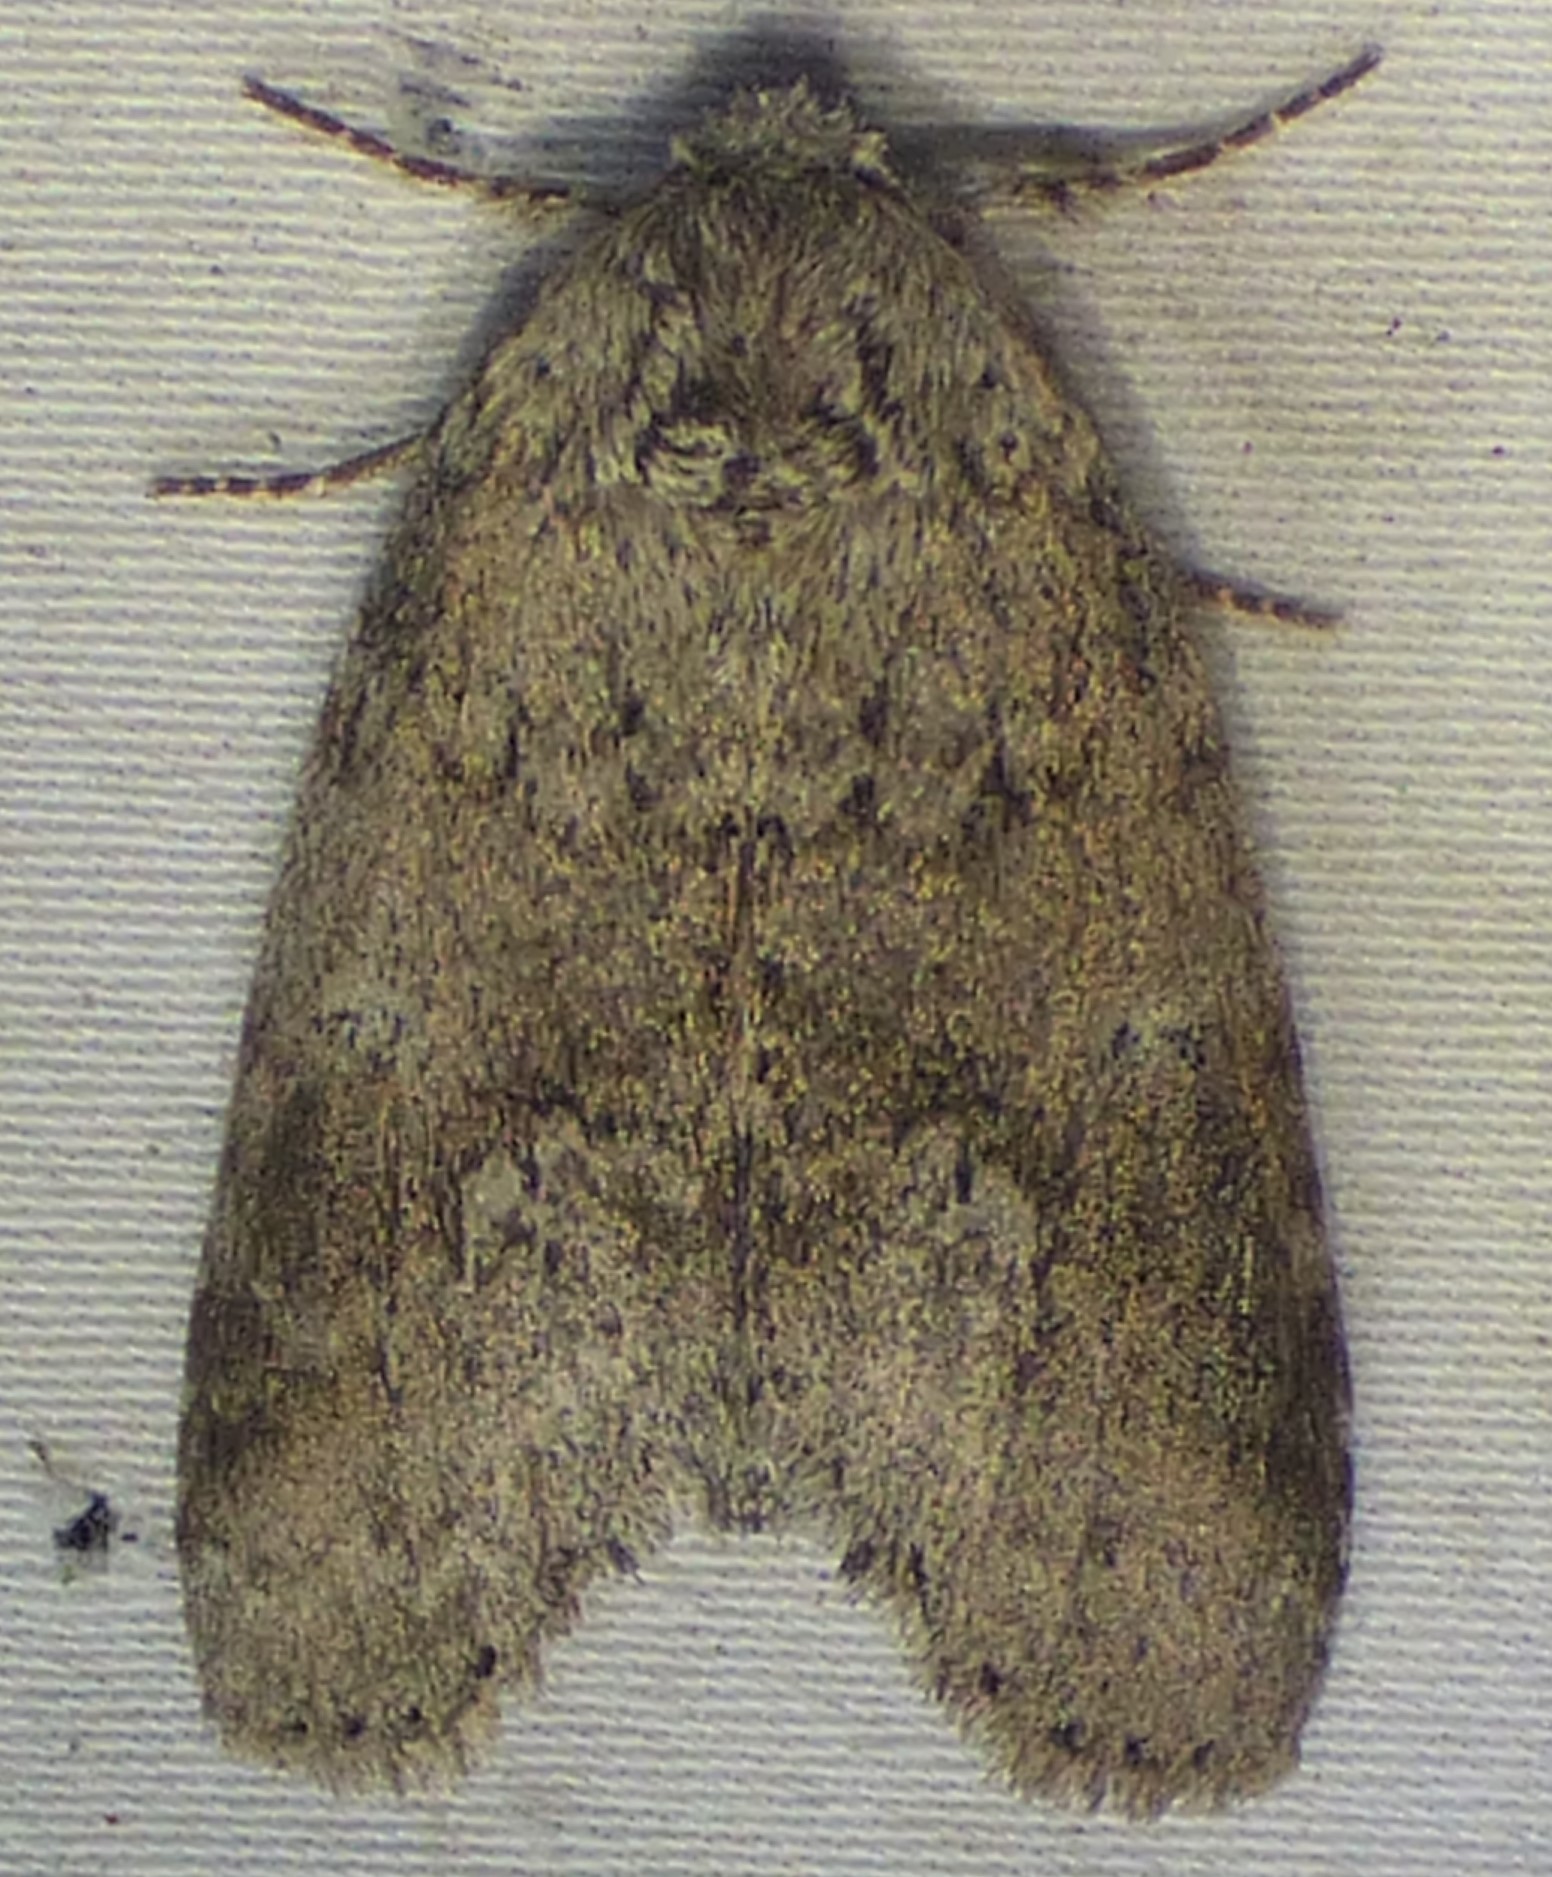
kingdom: Animalia
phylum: Arthropoda
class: Insecta
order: Lepidoptera
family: Notodontidae
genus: Lochmaeus
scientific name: Lochmaeus manteo
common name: Variable oakleaf caterpillar moth
